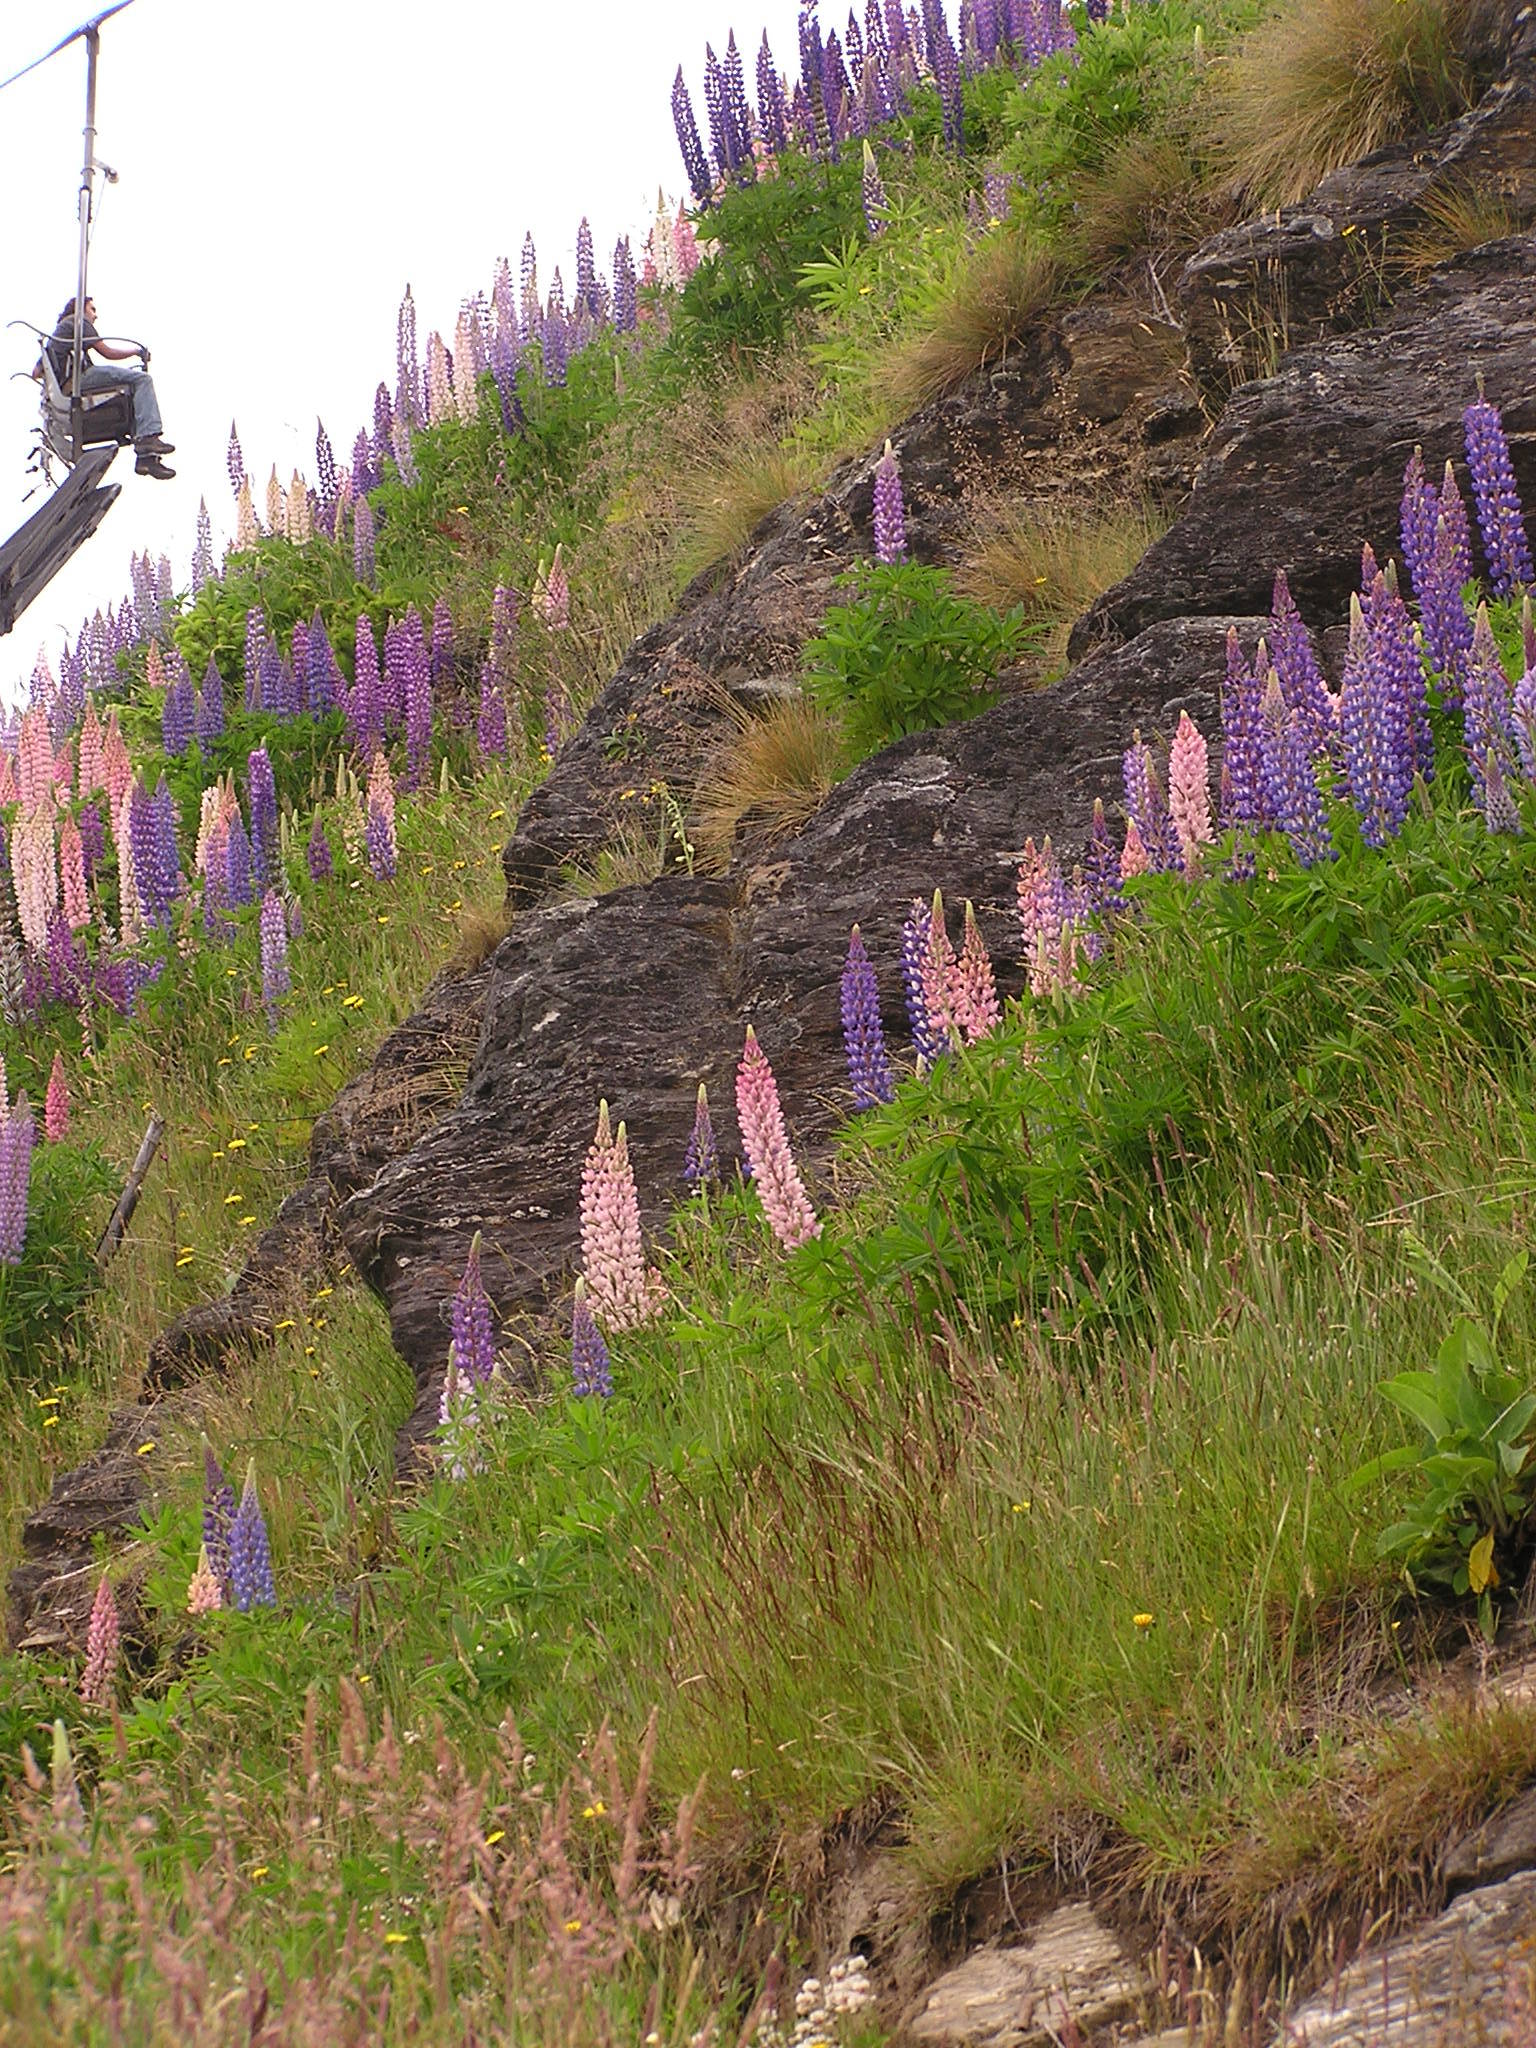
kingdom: Plantae
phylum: Tracheophyta
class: Magnoliopsida
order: Fabales
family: Fabaceae
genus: Lupinus
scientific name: Lupinus polyphyllus
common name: Garden lupin
